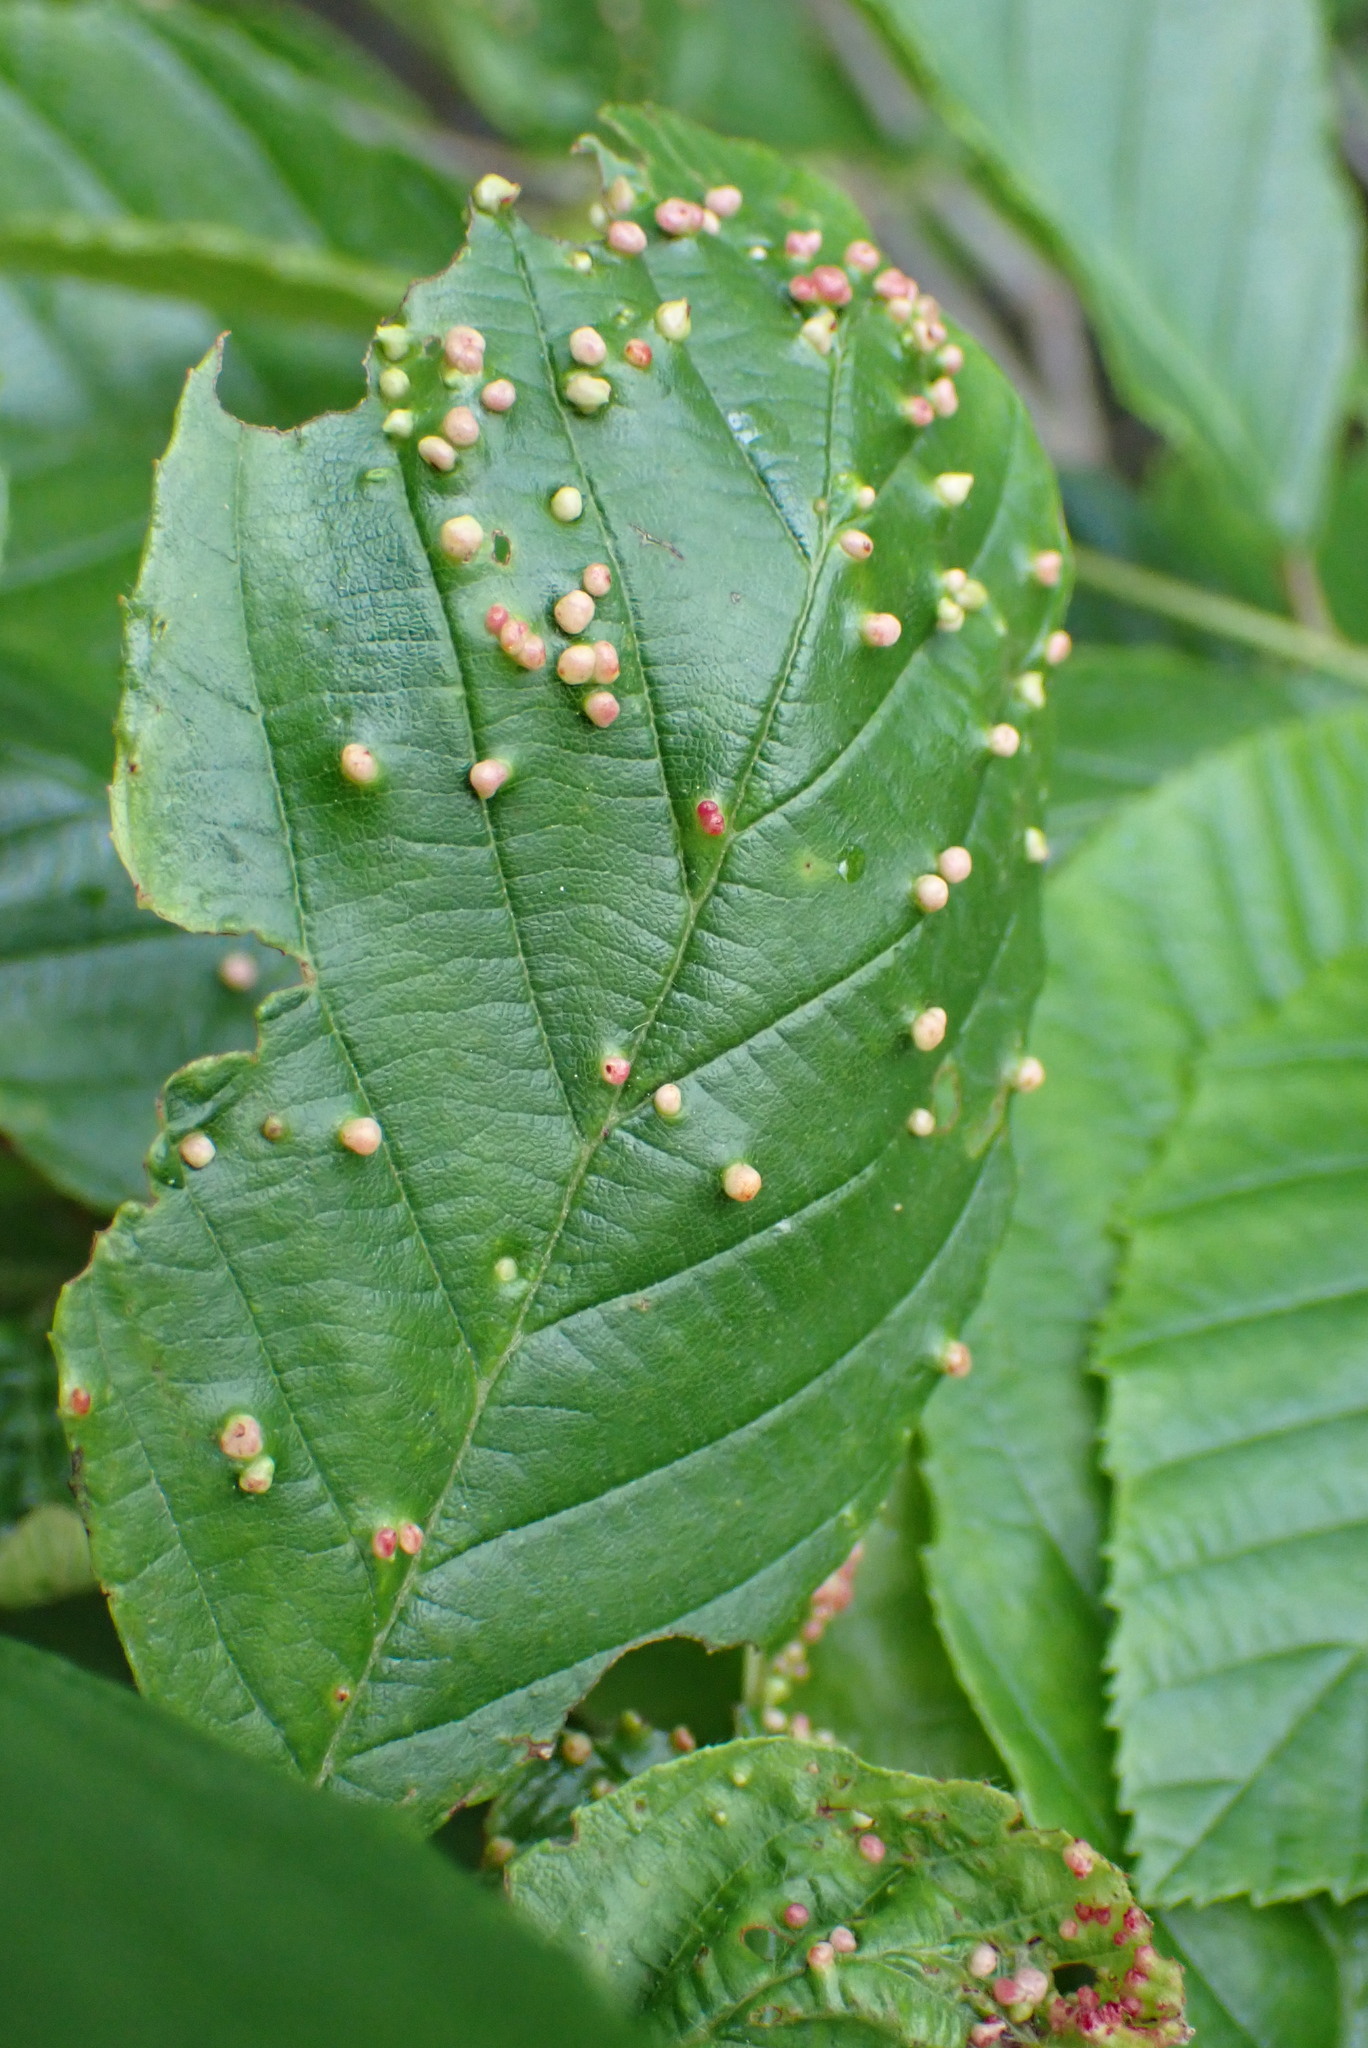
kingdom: Animalia
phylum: Arthropoda
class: Arachnida
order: Trombidiformes
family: Eriophyidae
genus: Eriophyes
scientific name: Eriophyes laevis
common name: Alder leaf gall mite
